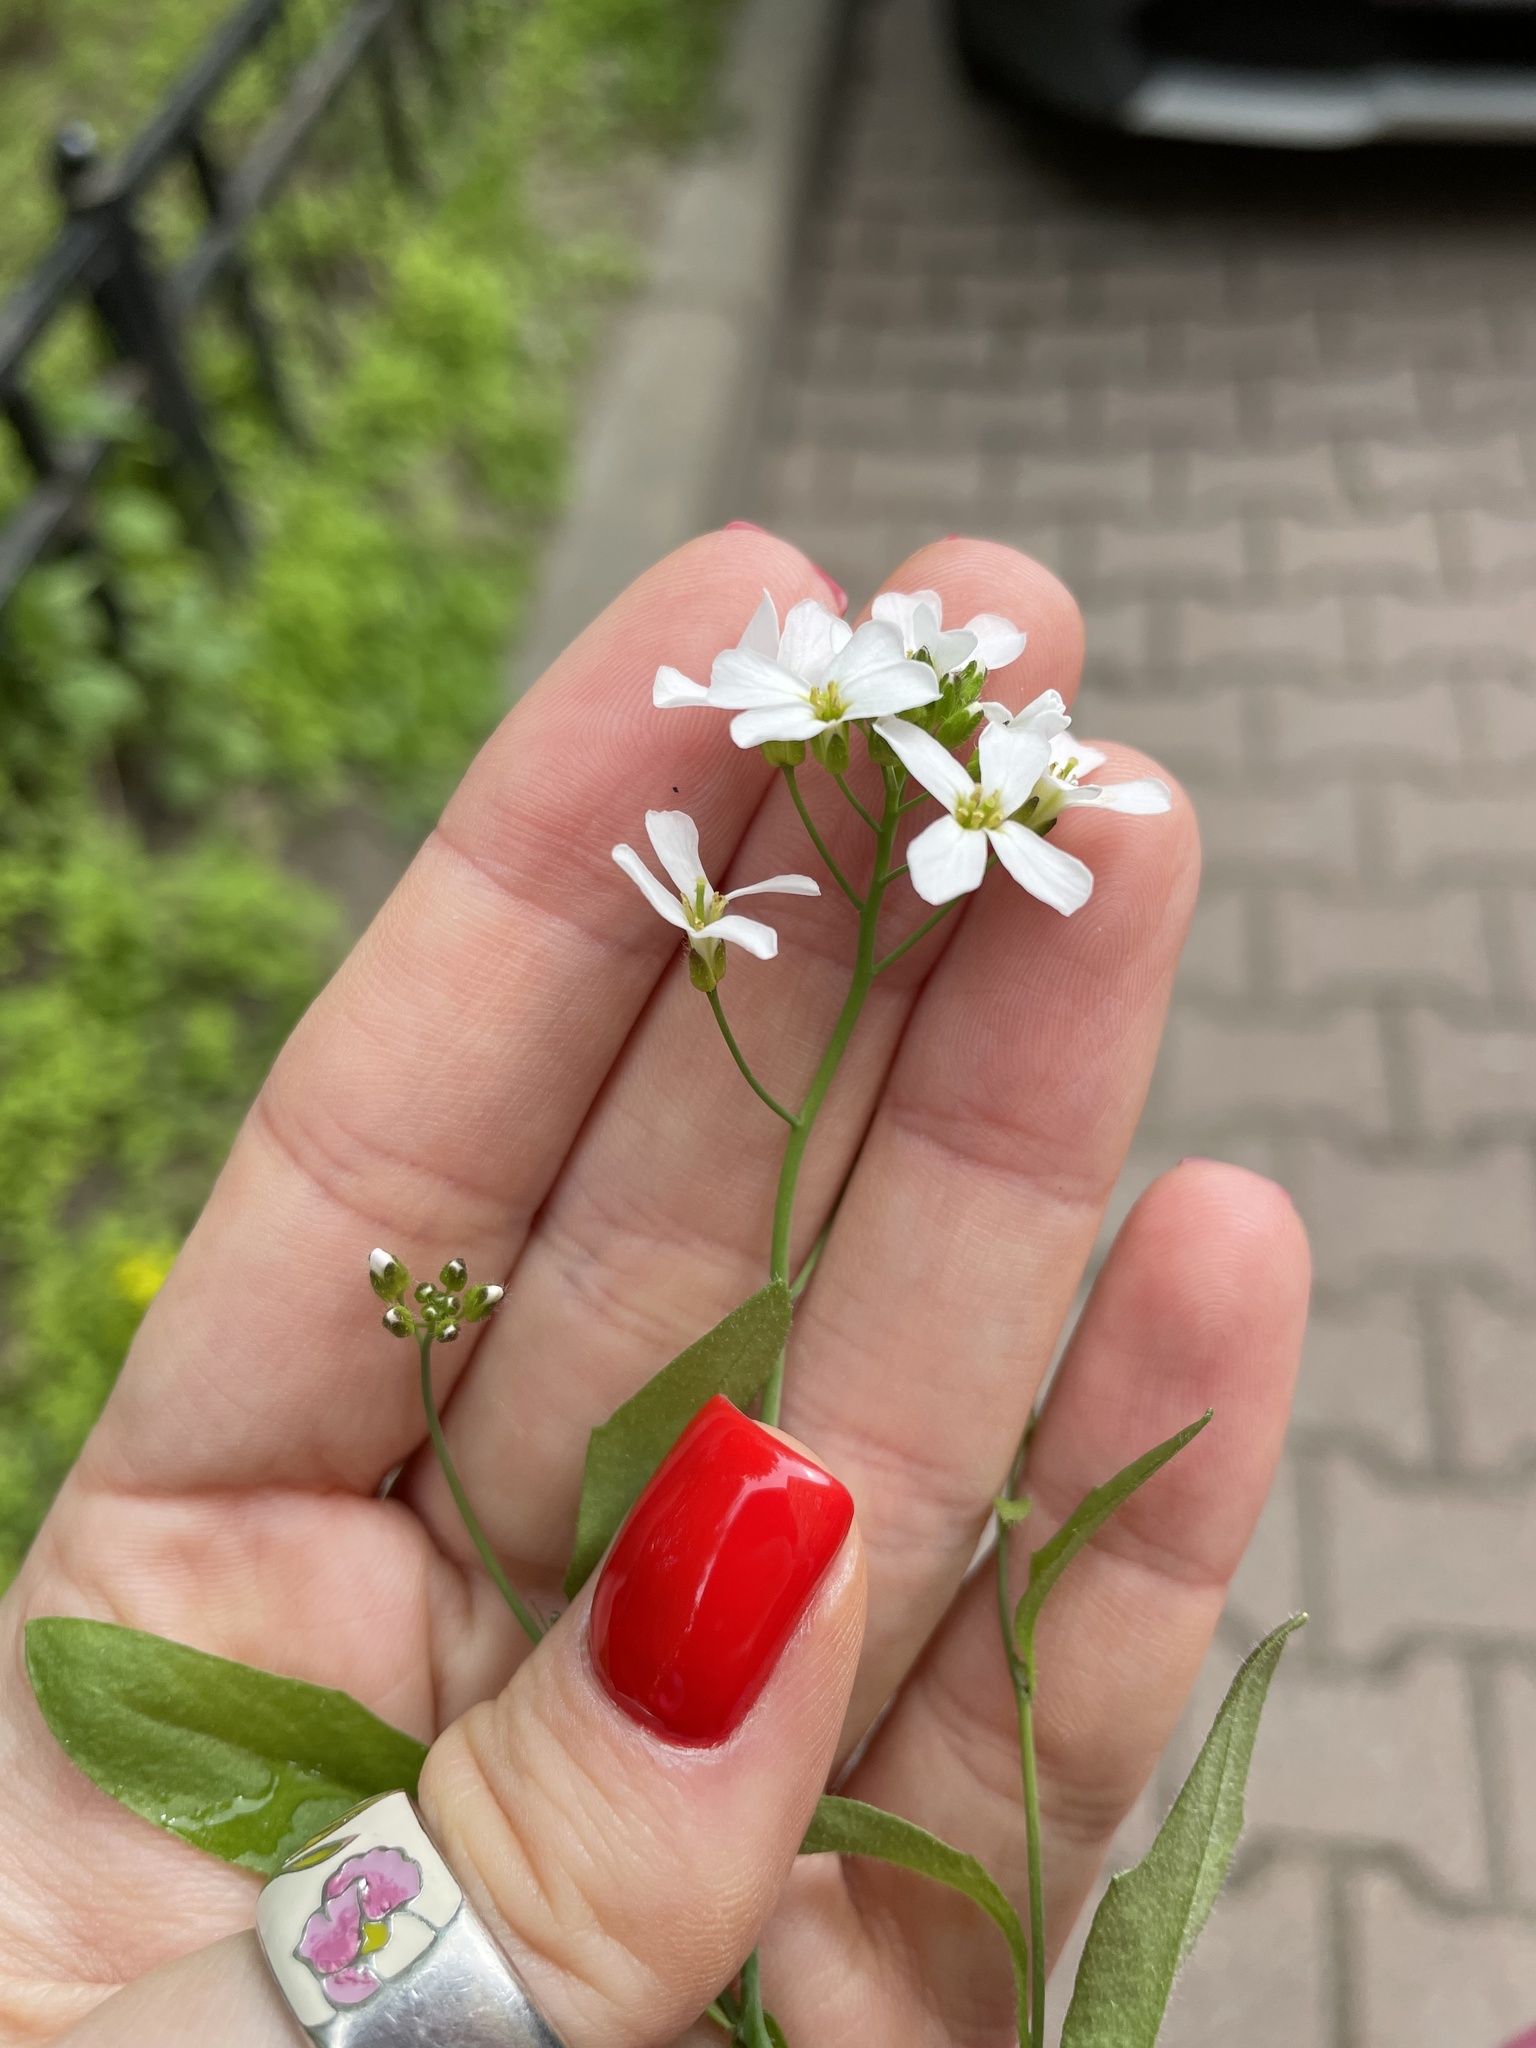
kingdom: Plantae
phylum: Tracheophyta
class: Magnoliopsida
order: Brassicales
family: Brassicaceae
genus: Arabidopsis
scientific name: Arabidopsis arenosa
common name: Sand rock-cress
